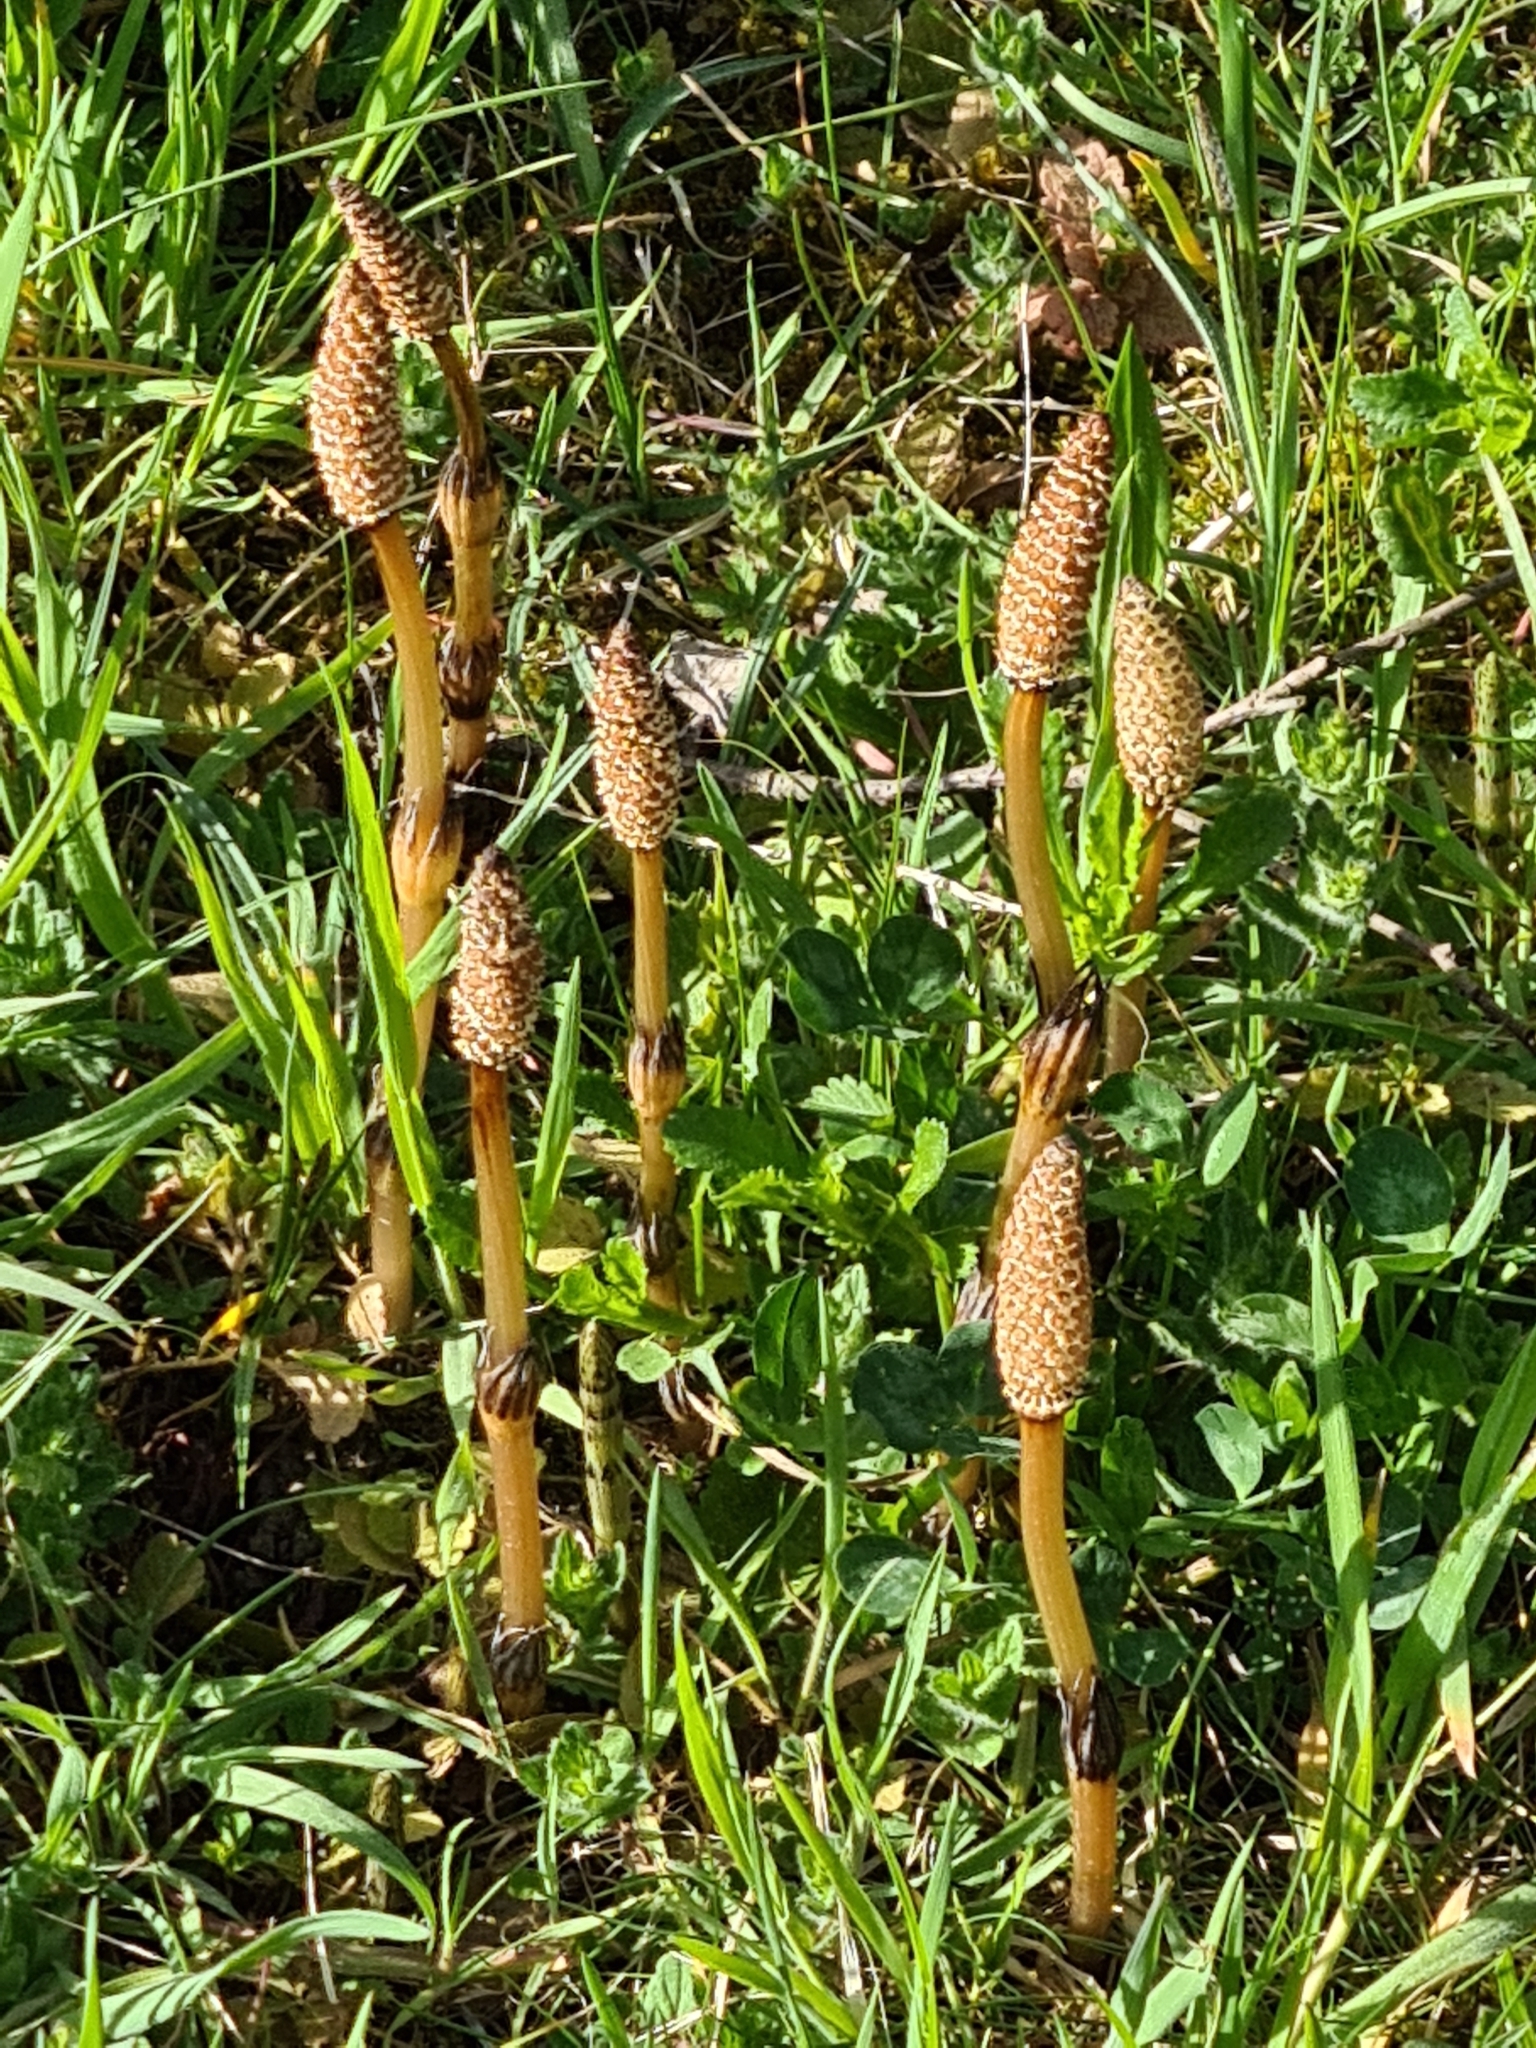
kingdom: Plantae
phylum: Tracheophyta
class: Polypodiopsida
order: Equisetales
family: Equisetaceae
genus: Equisetum
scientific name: Equisetum arvense
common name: Field horsetail
